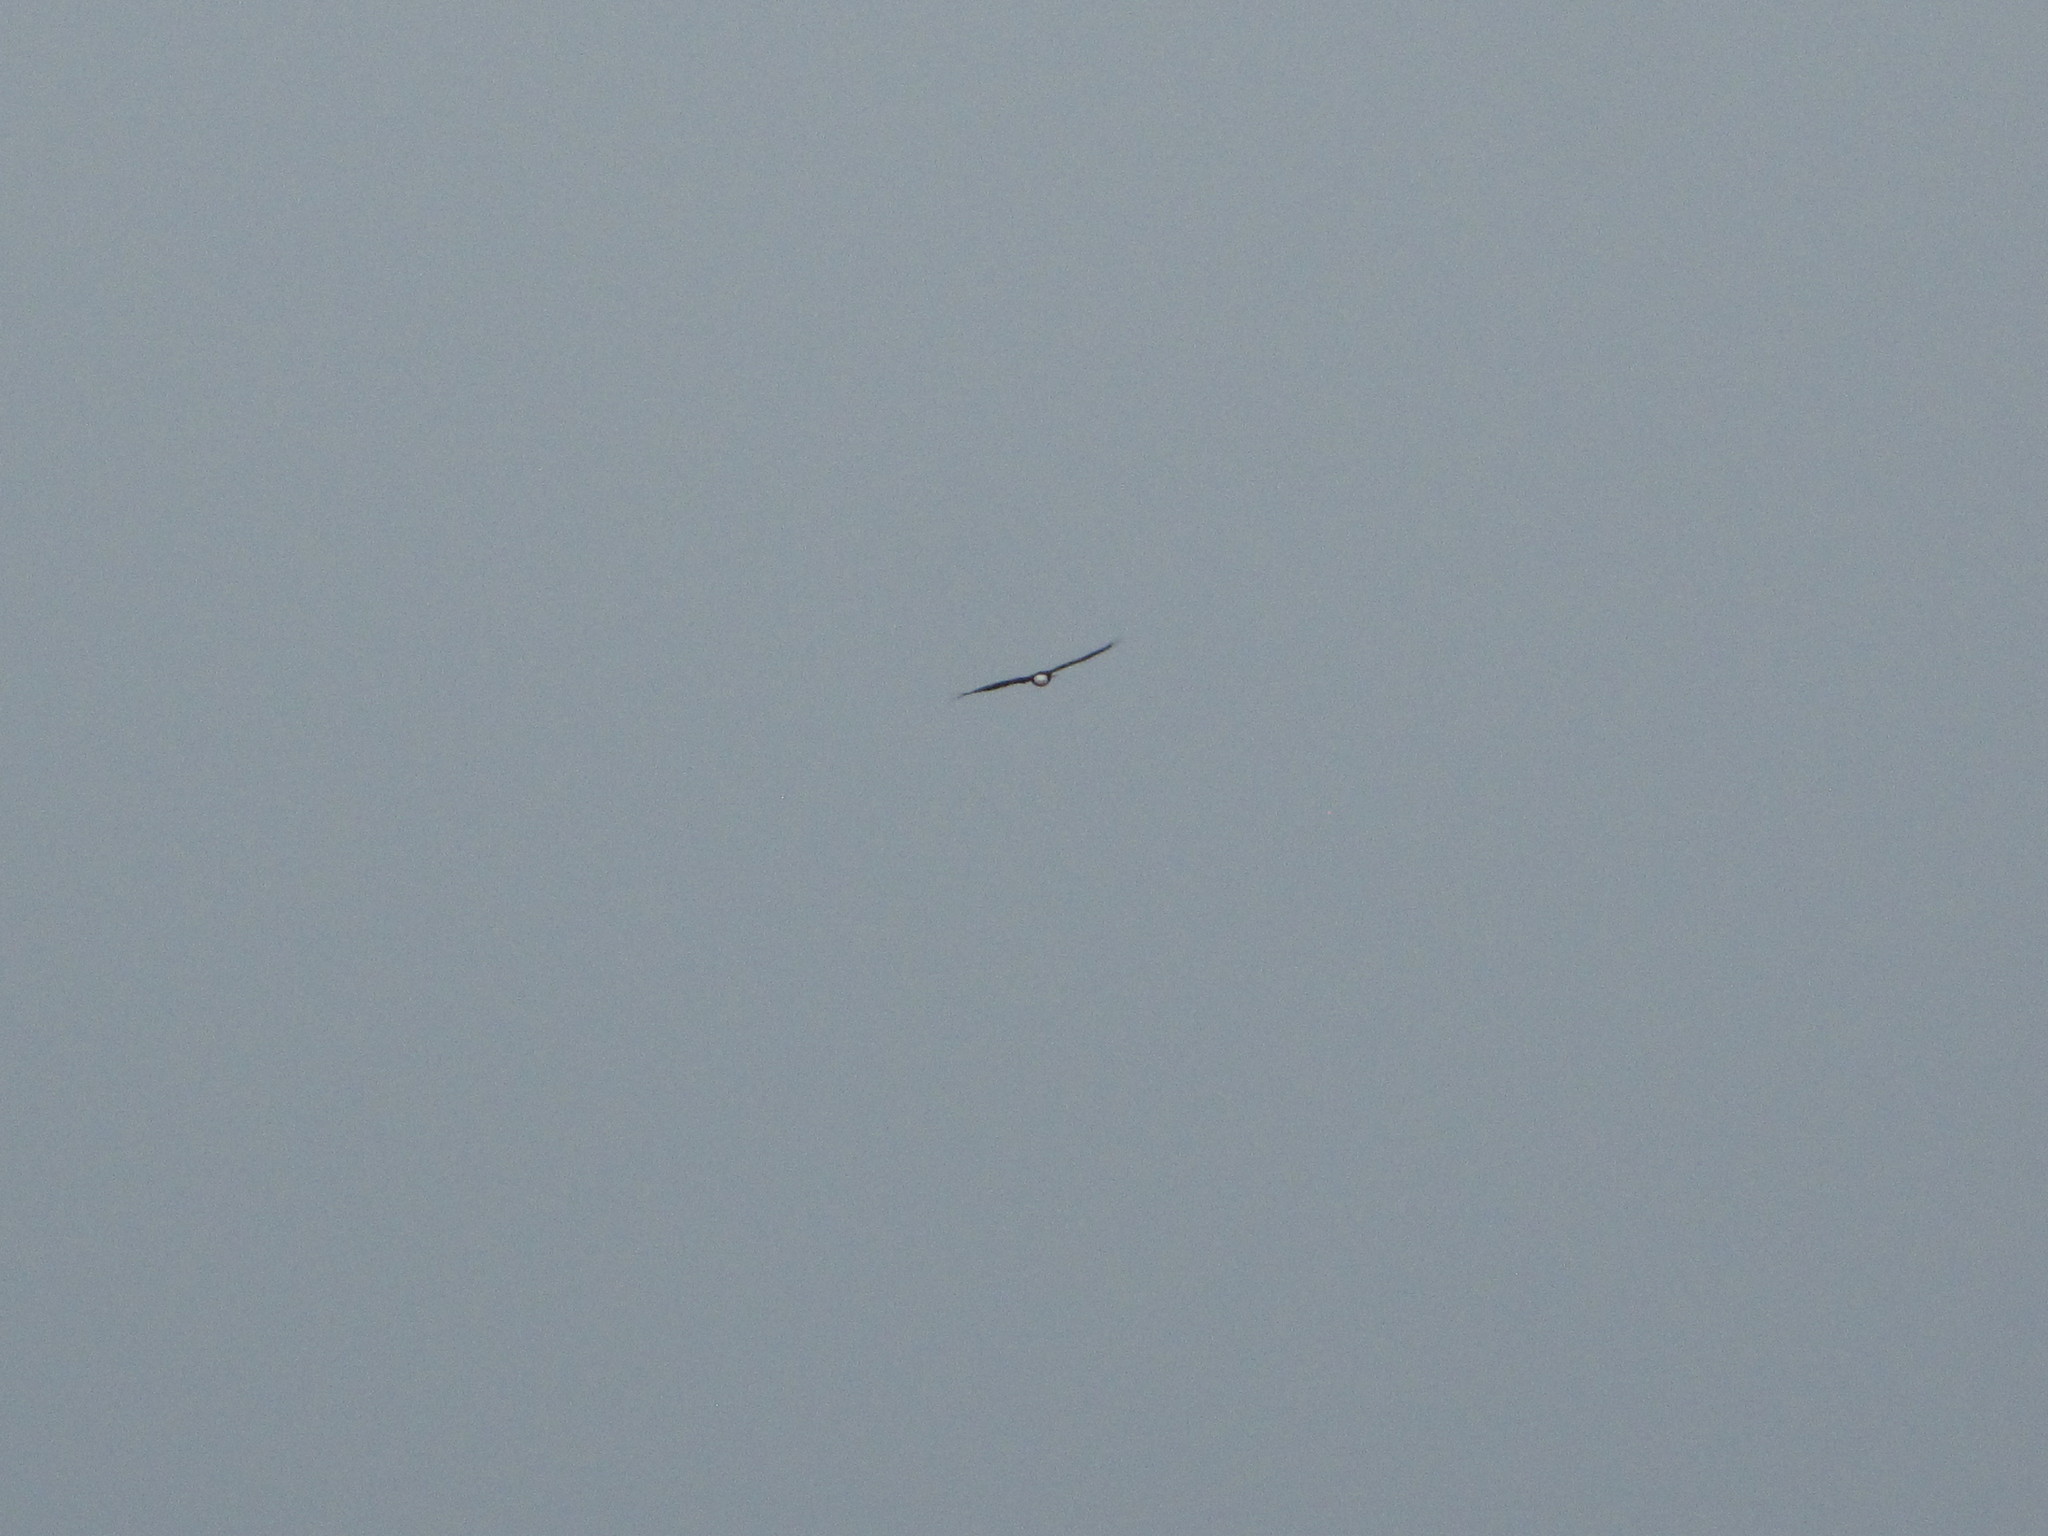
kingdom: Animalia
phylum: Chordata
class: Aves
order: Accipitriformes
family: Accipitridae
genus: Haliaeetus
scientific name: Haliaeetus leucocephalus
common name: Bald eagle
